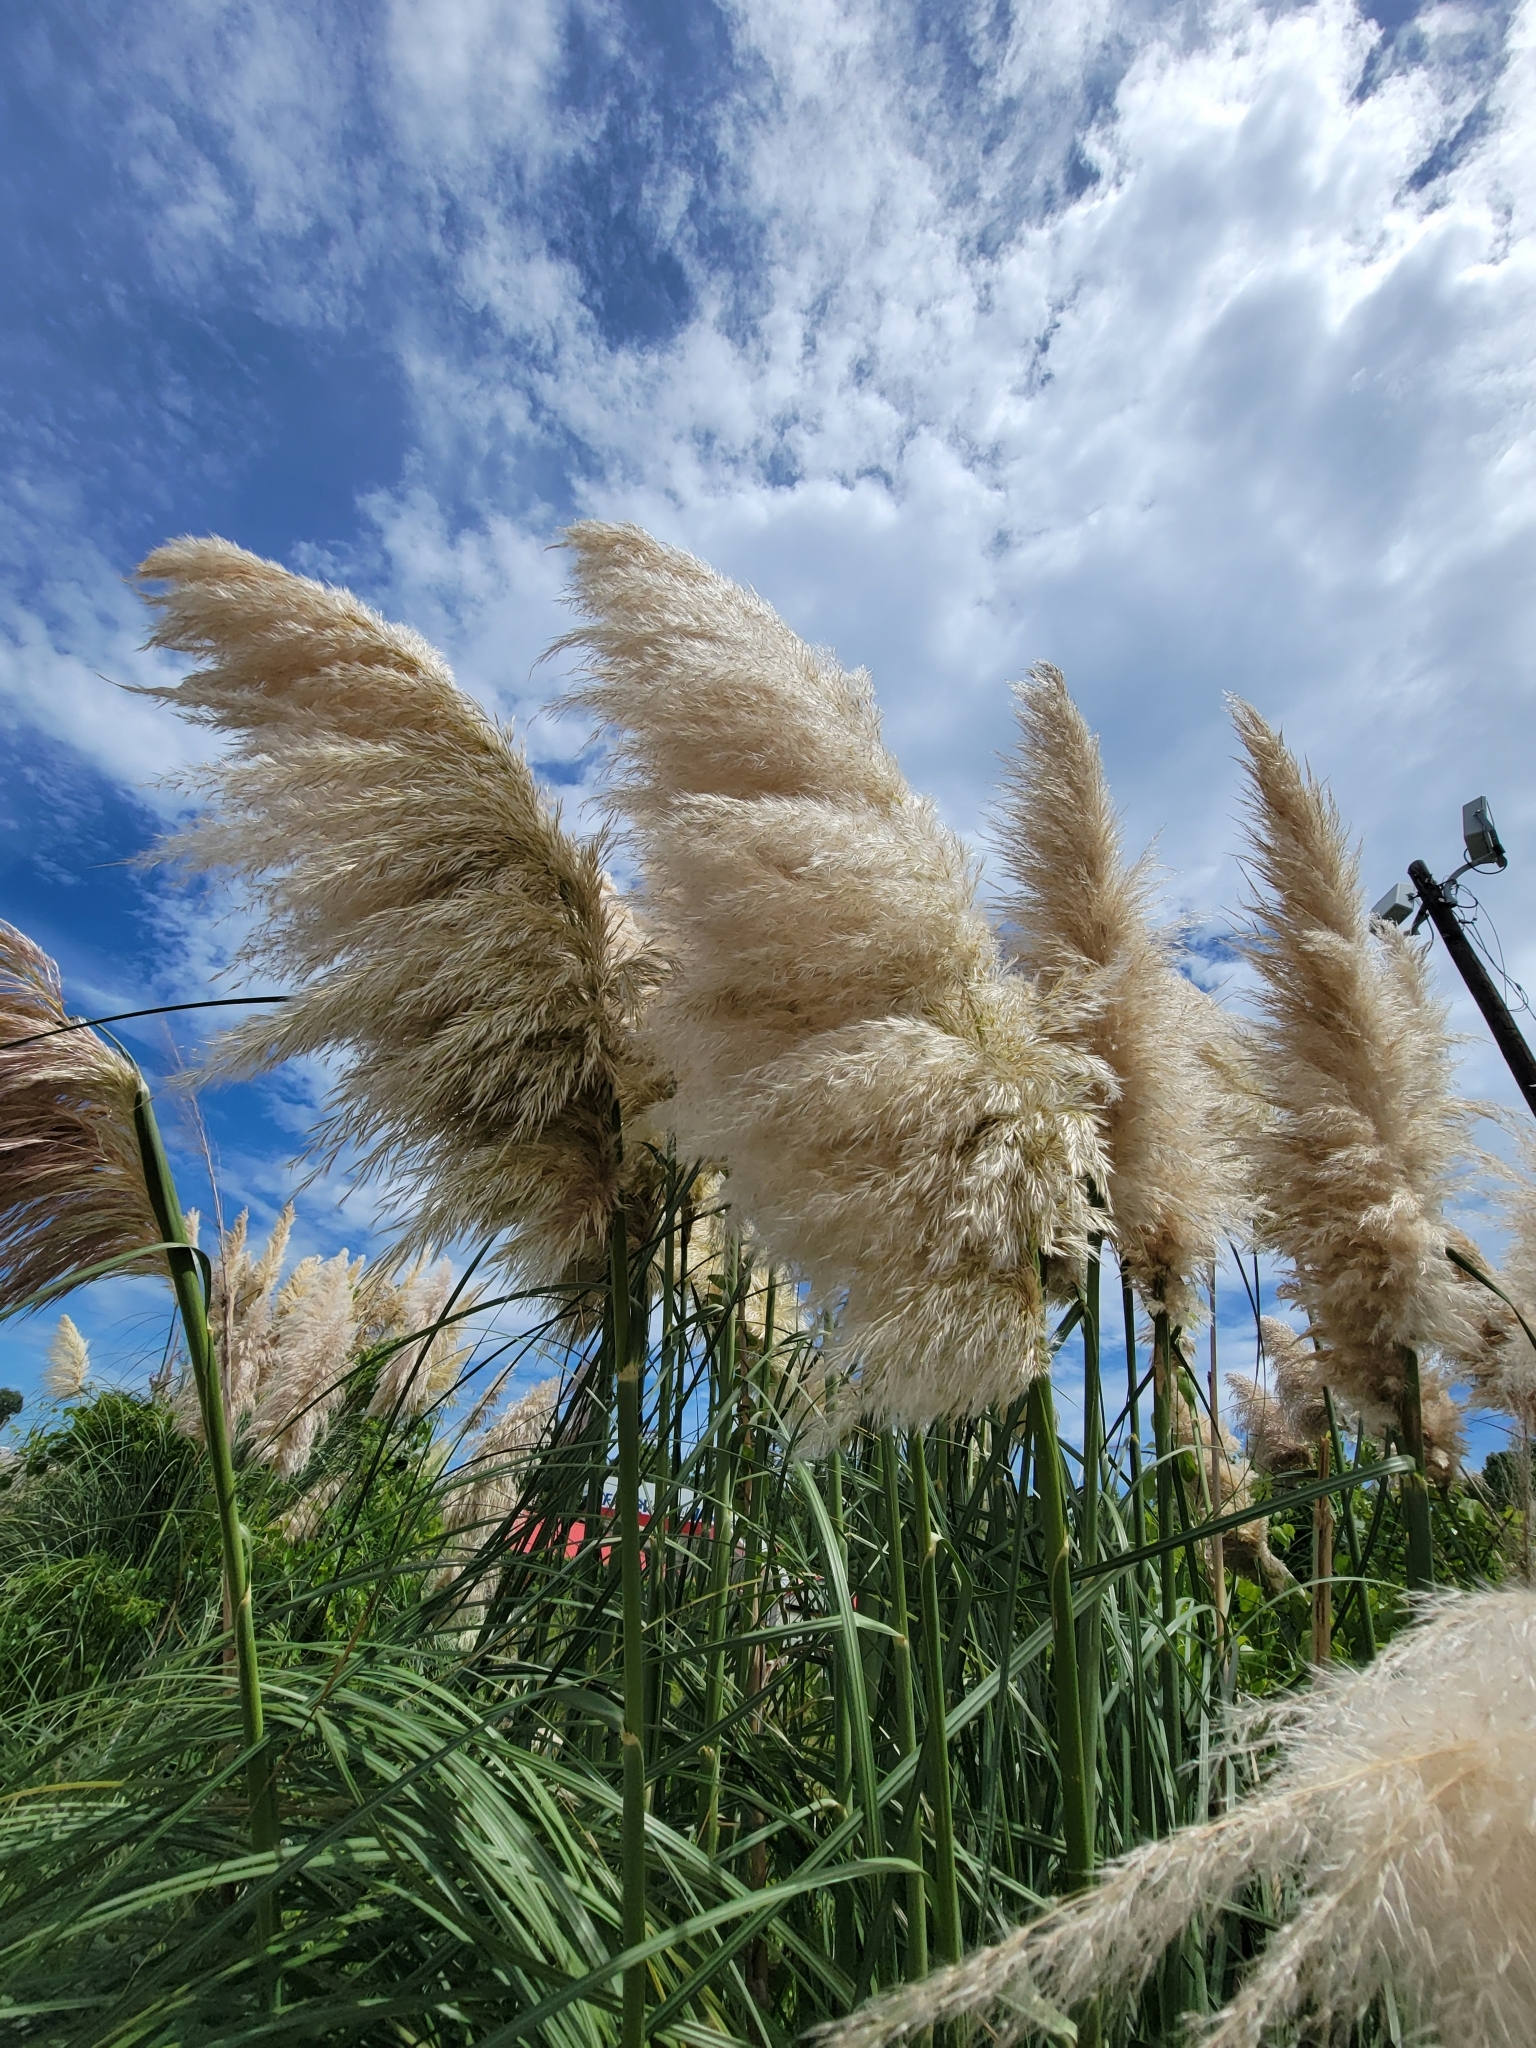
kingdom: Plantae
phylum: Tracheophyta
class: Liliopsida
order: Poales
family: Poaceae
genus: Cortaderia
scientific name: Cortaderia selloana
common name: Uruguayan pampas grass
